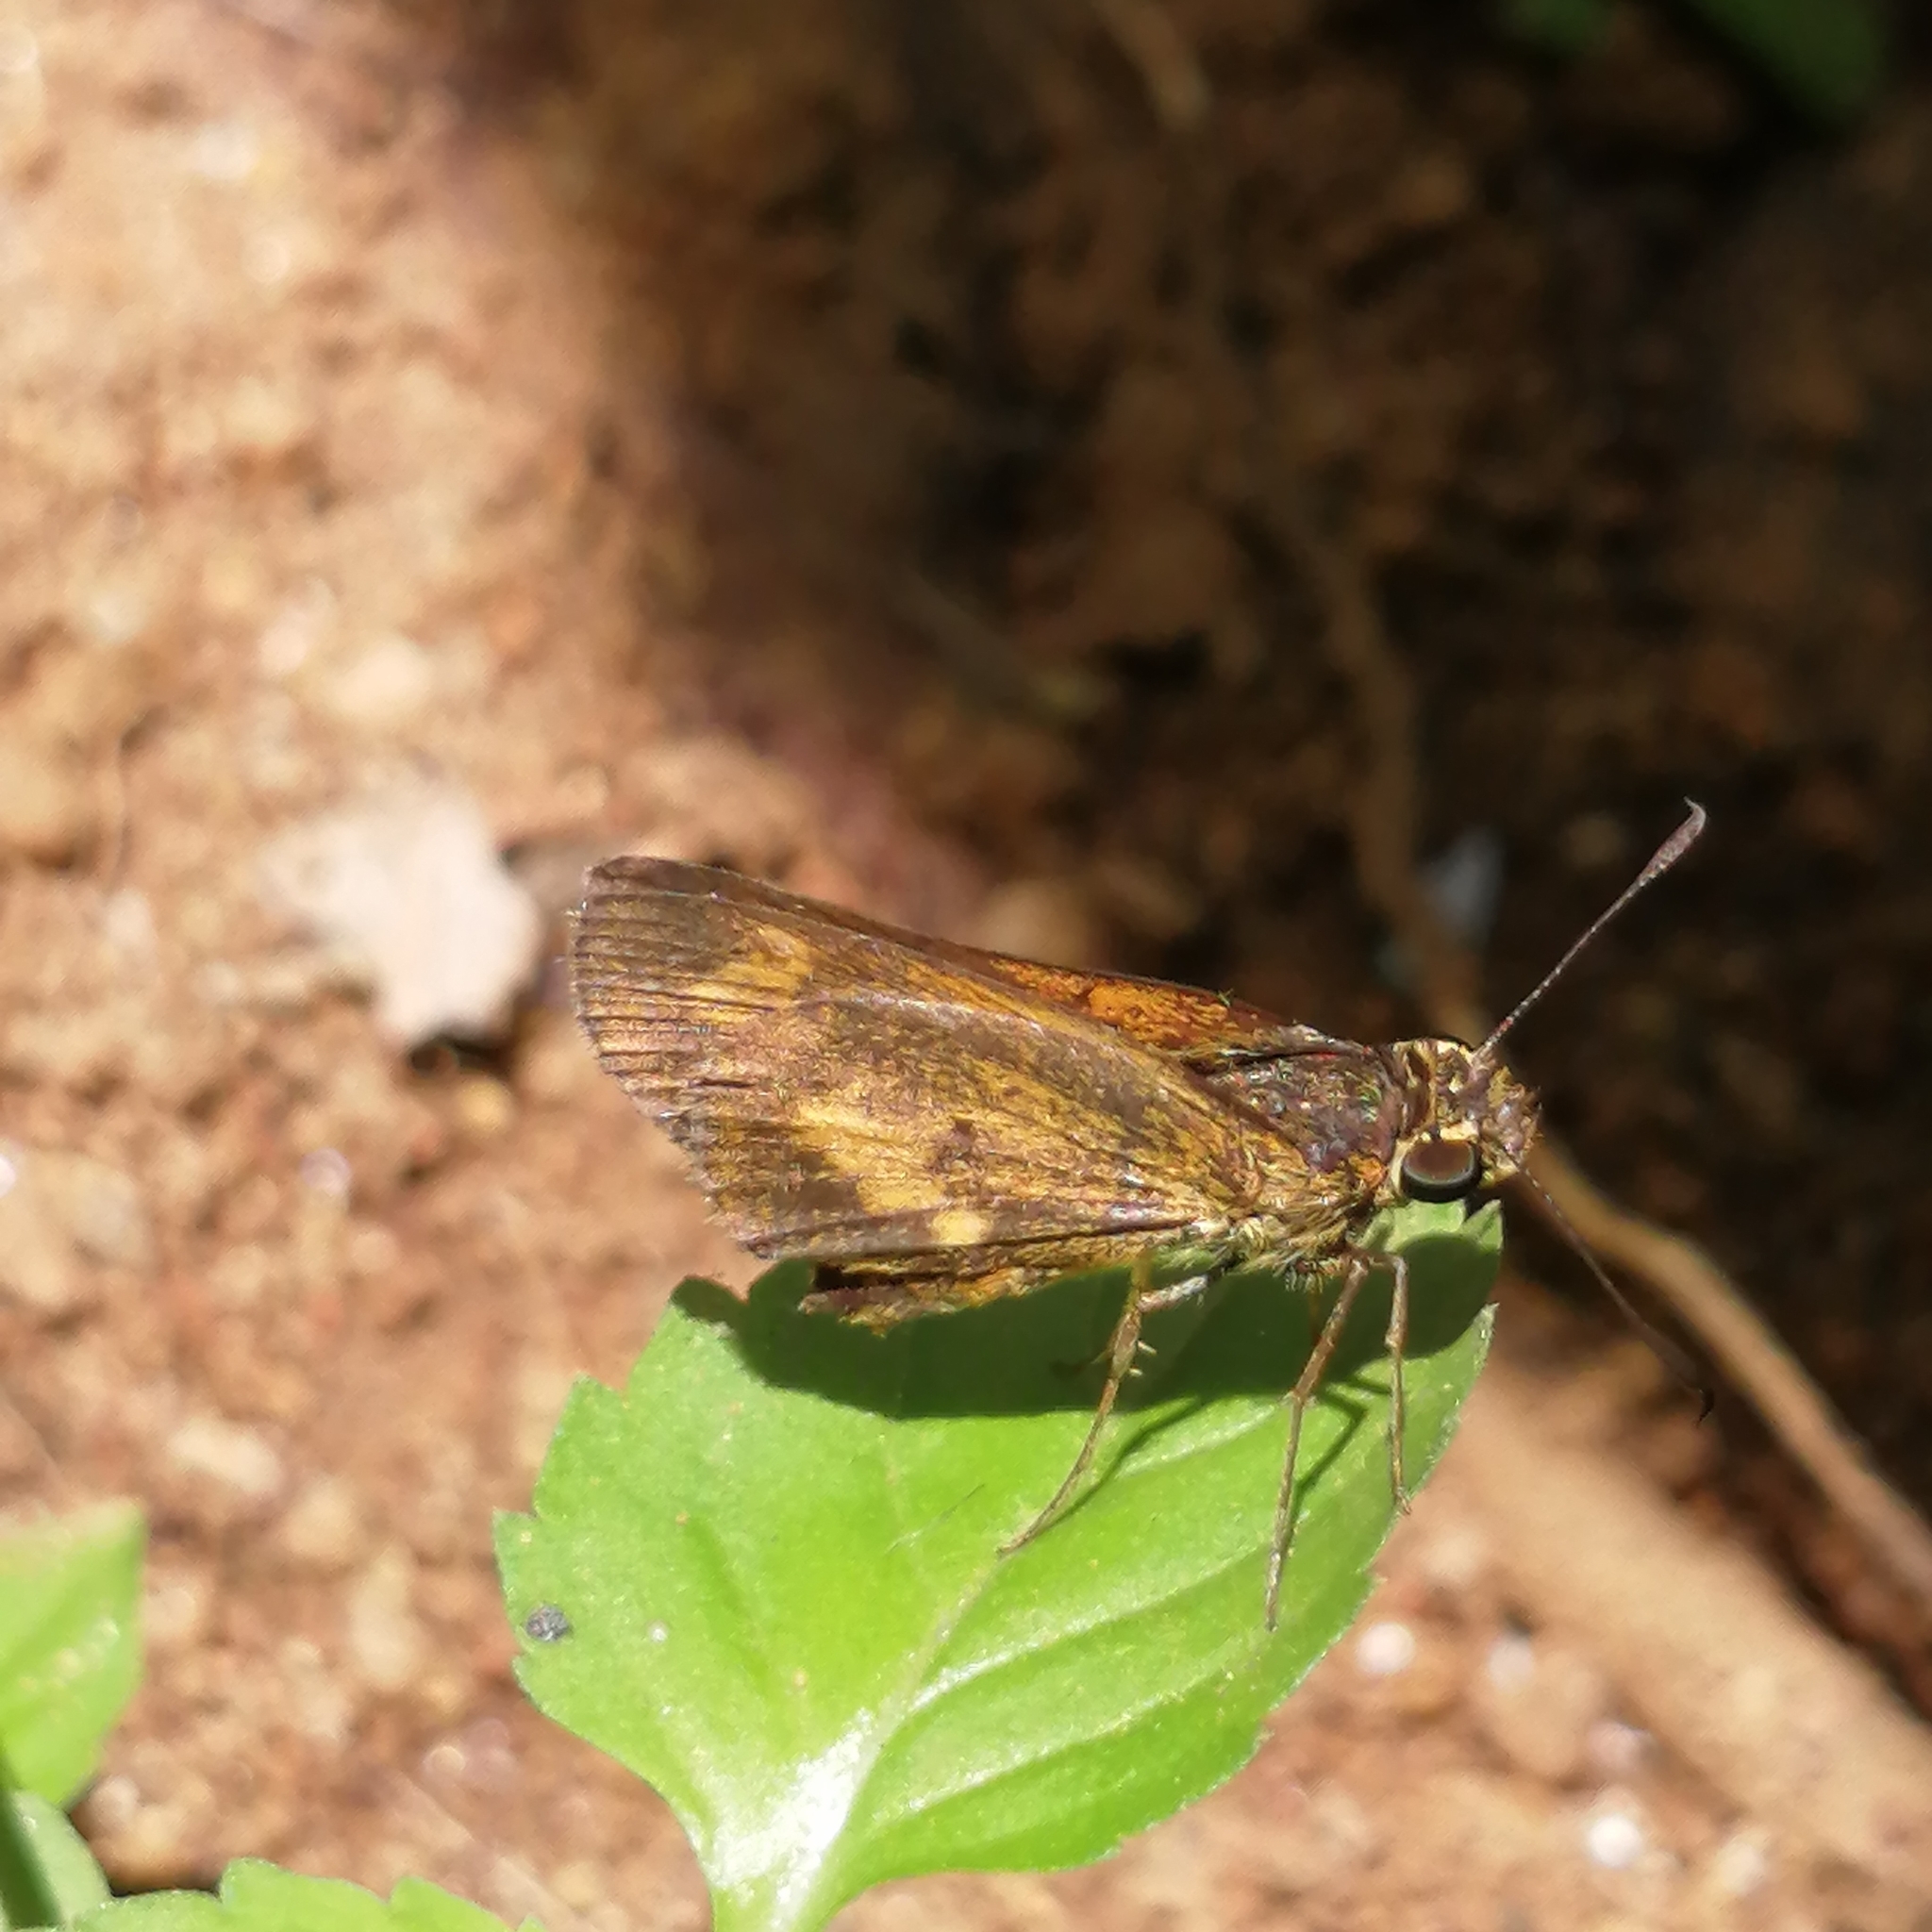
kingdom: Animalia
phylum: Arthropoda
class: Insecta
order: Lepidoptera
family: Hesperiidae
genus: Oriens
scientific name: Oriens concinna
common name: Sahyadri dartlet
